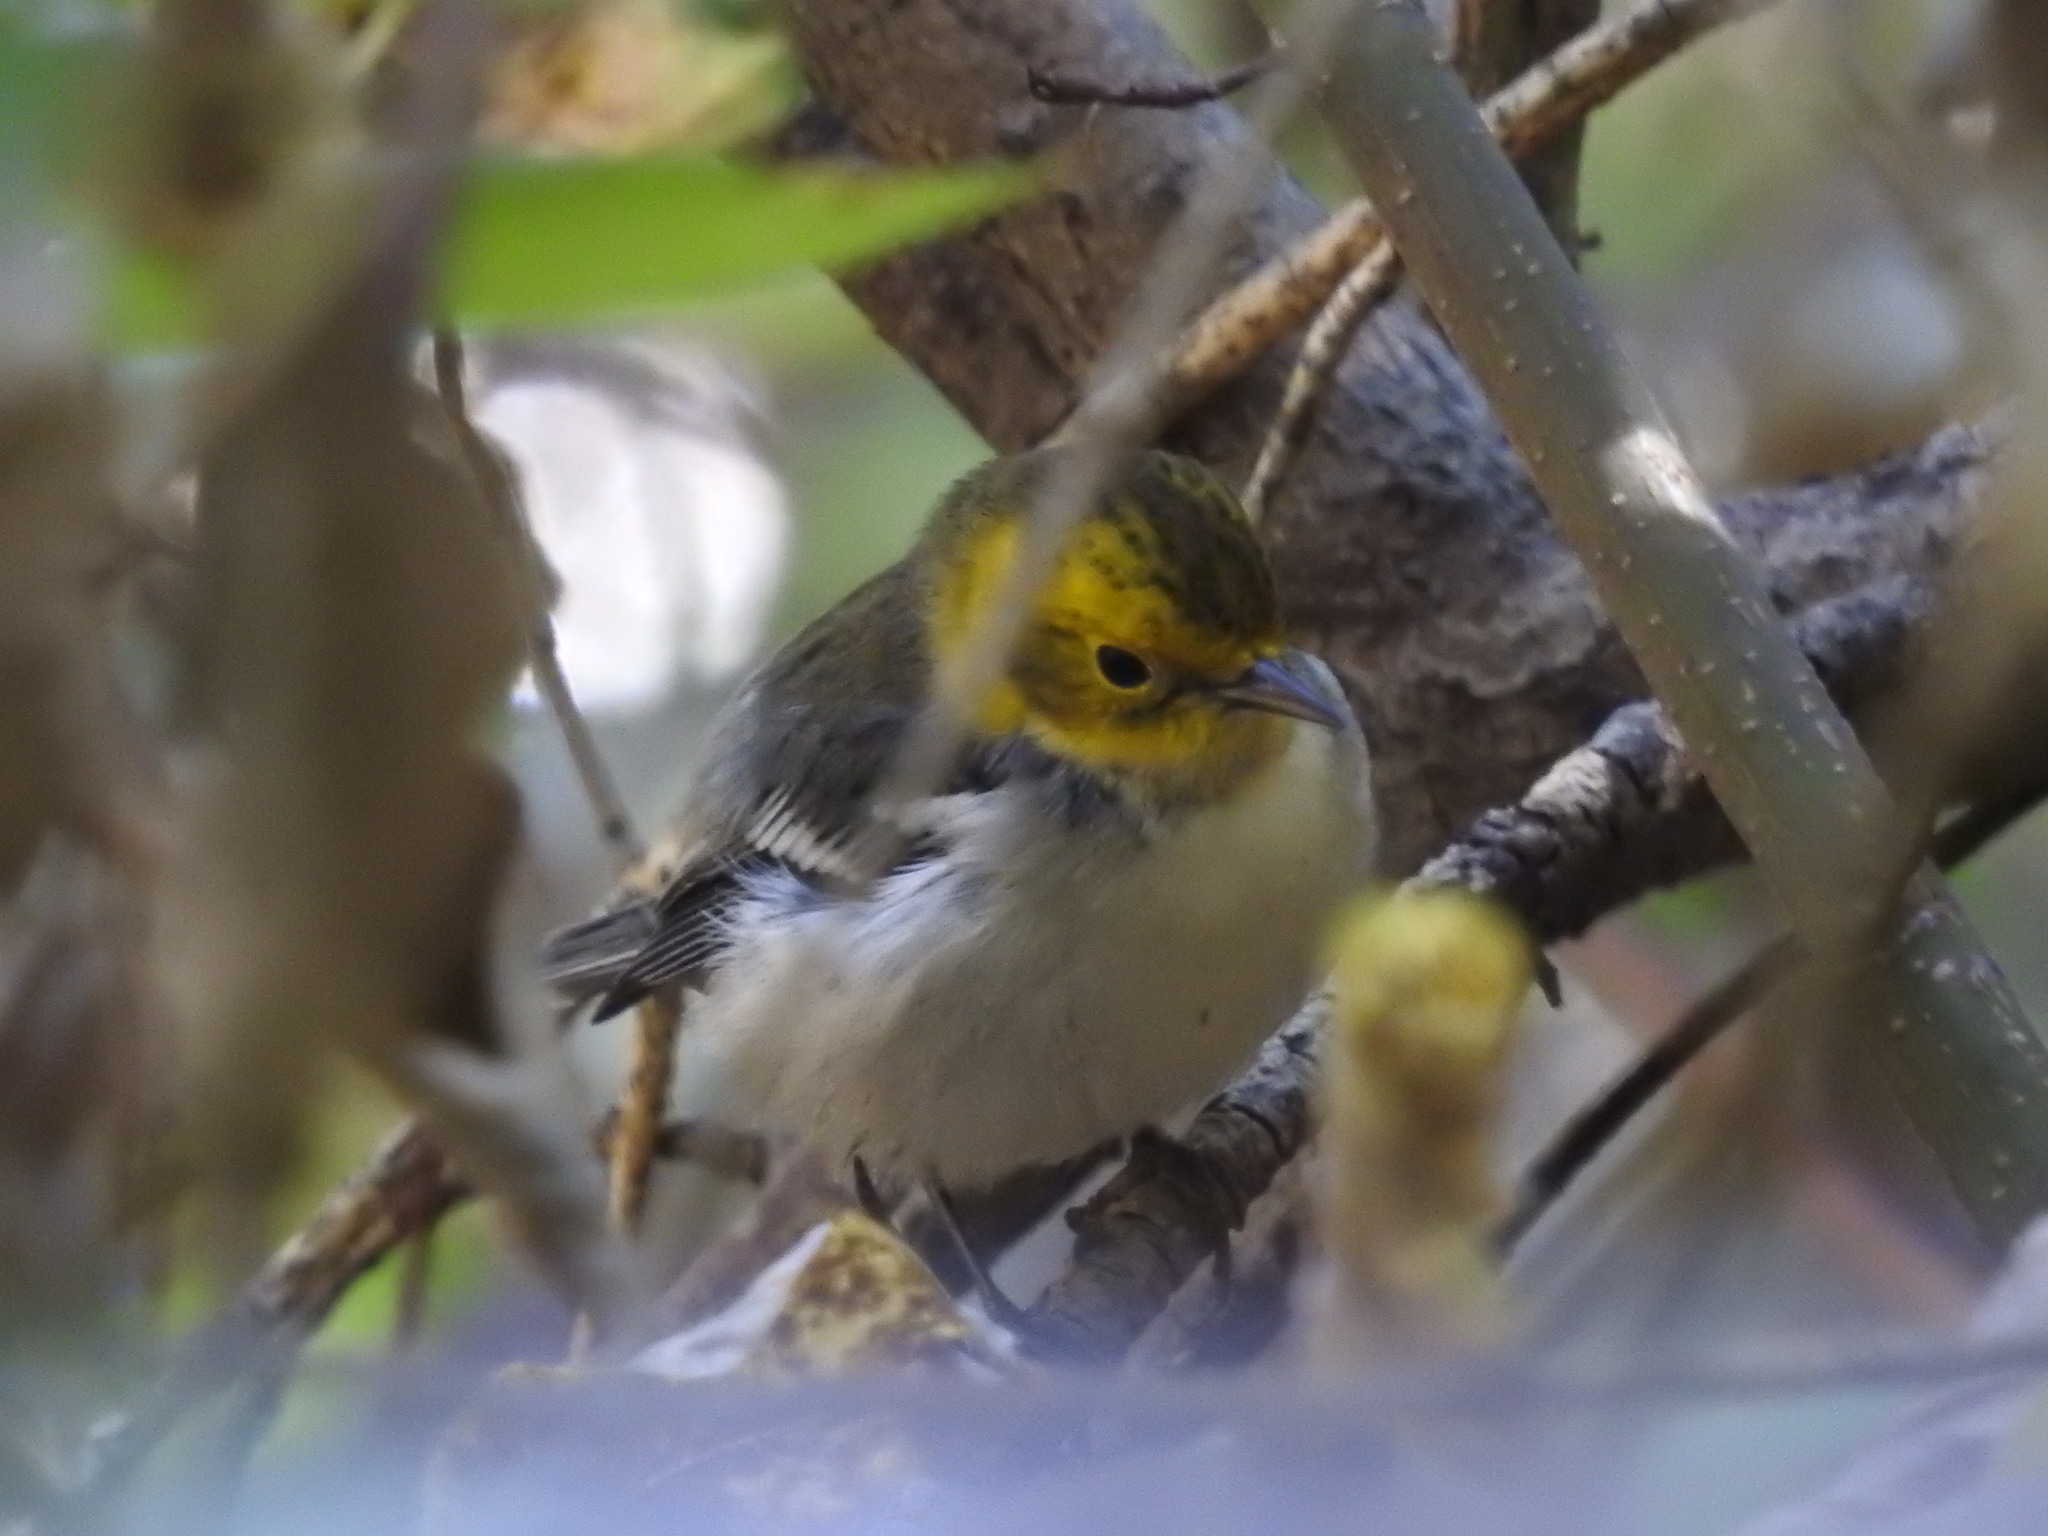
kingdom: Animalia
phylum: Chordata
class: Aves
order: Passeriformes
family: Parulidae
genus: Setophaga
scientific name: Setophaga occidentalis
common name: Hermit warbler
